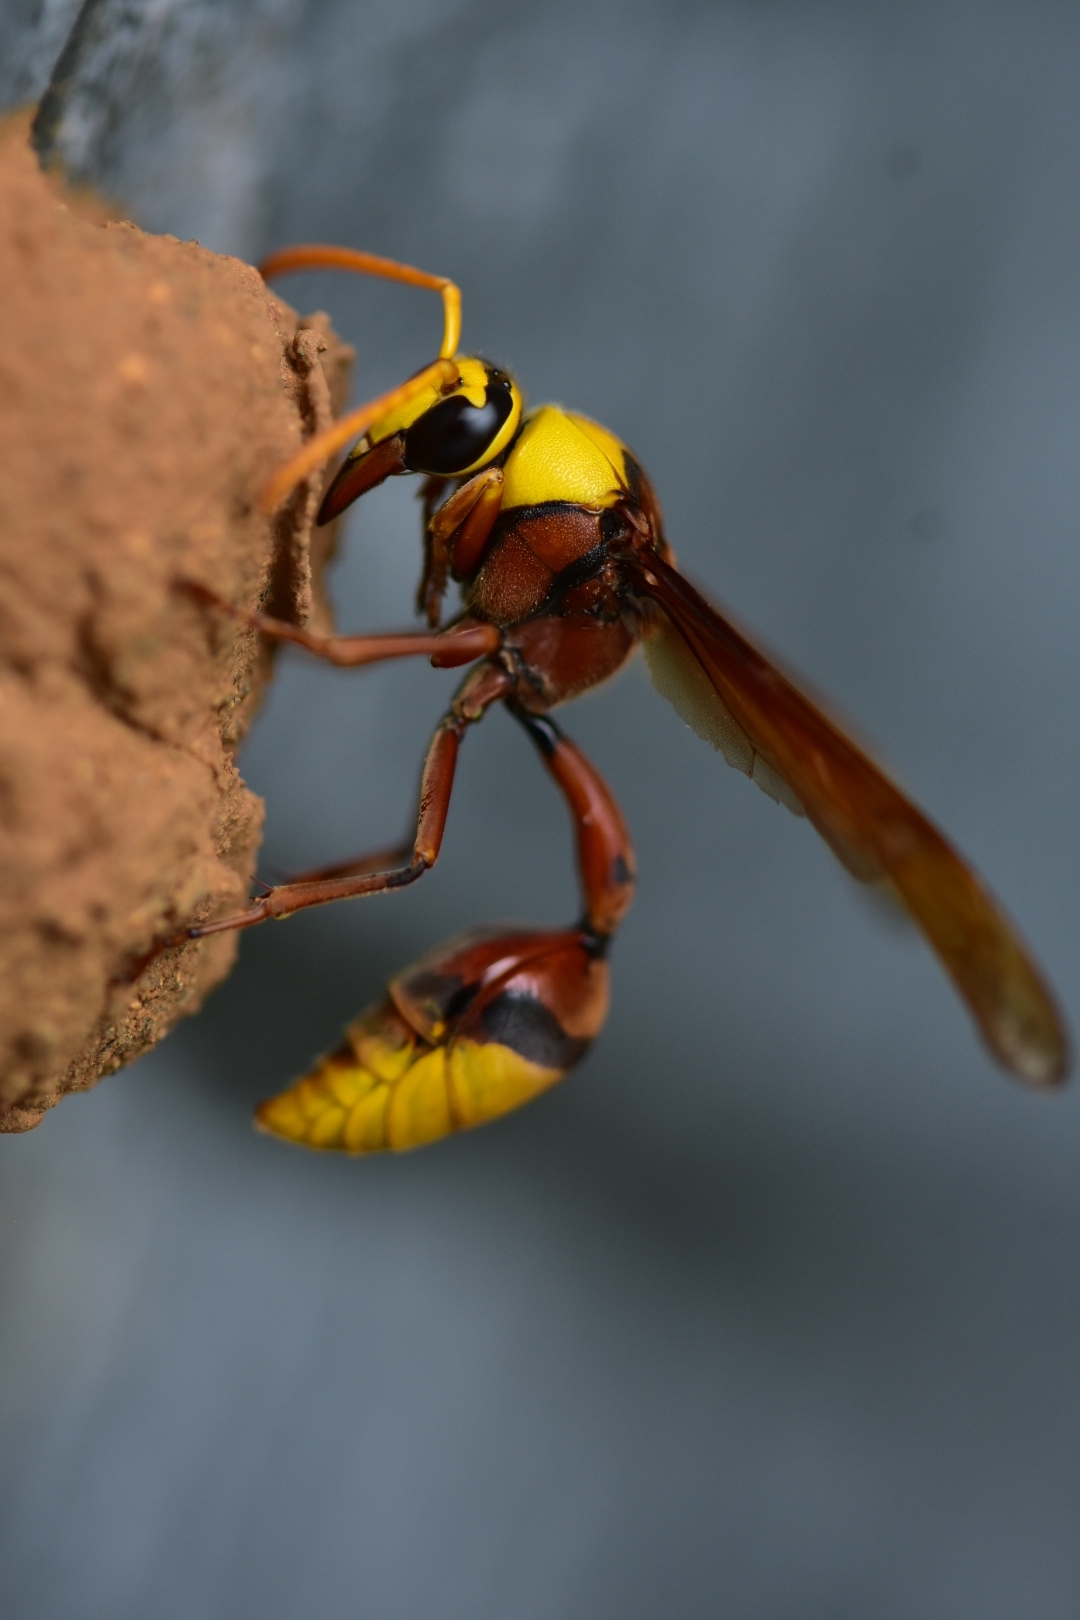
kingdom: Animalia
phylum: Arthropoda
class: Insecta
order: Hymenoptera
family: Eumenidae
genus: Delta
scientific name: Delta pyriforme
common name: Wasp
